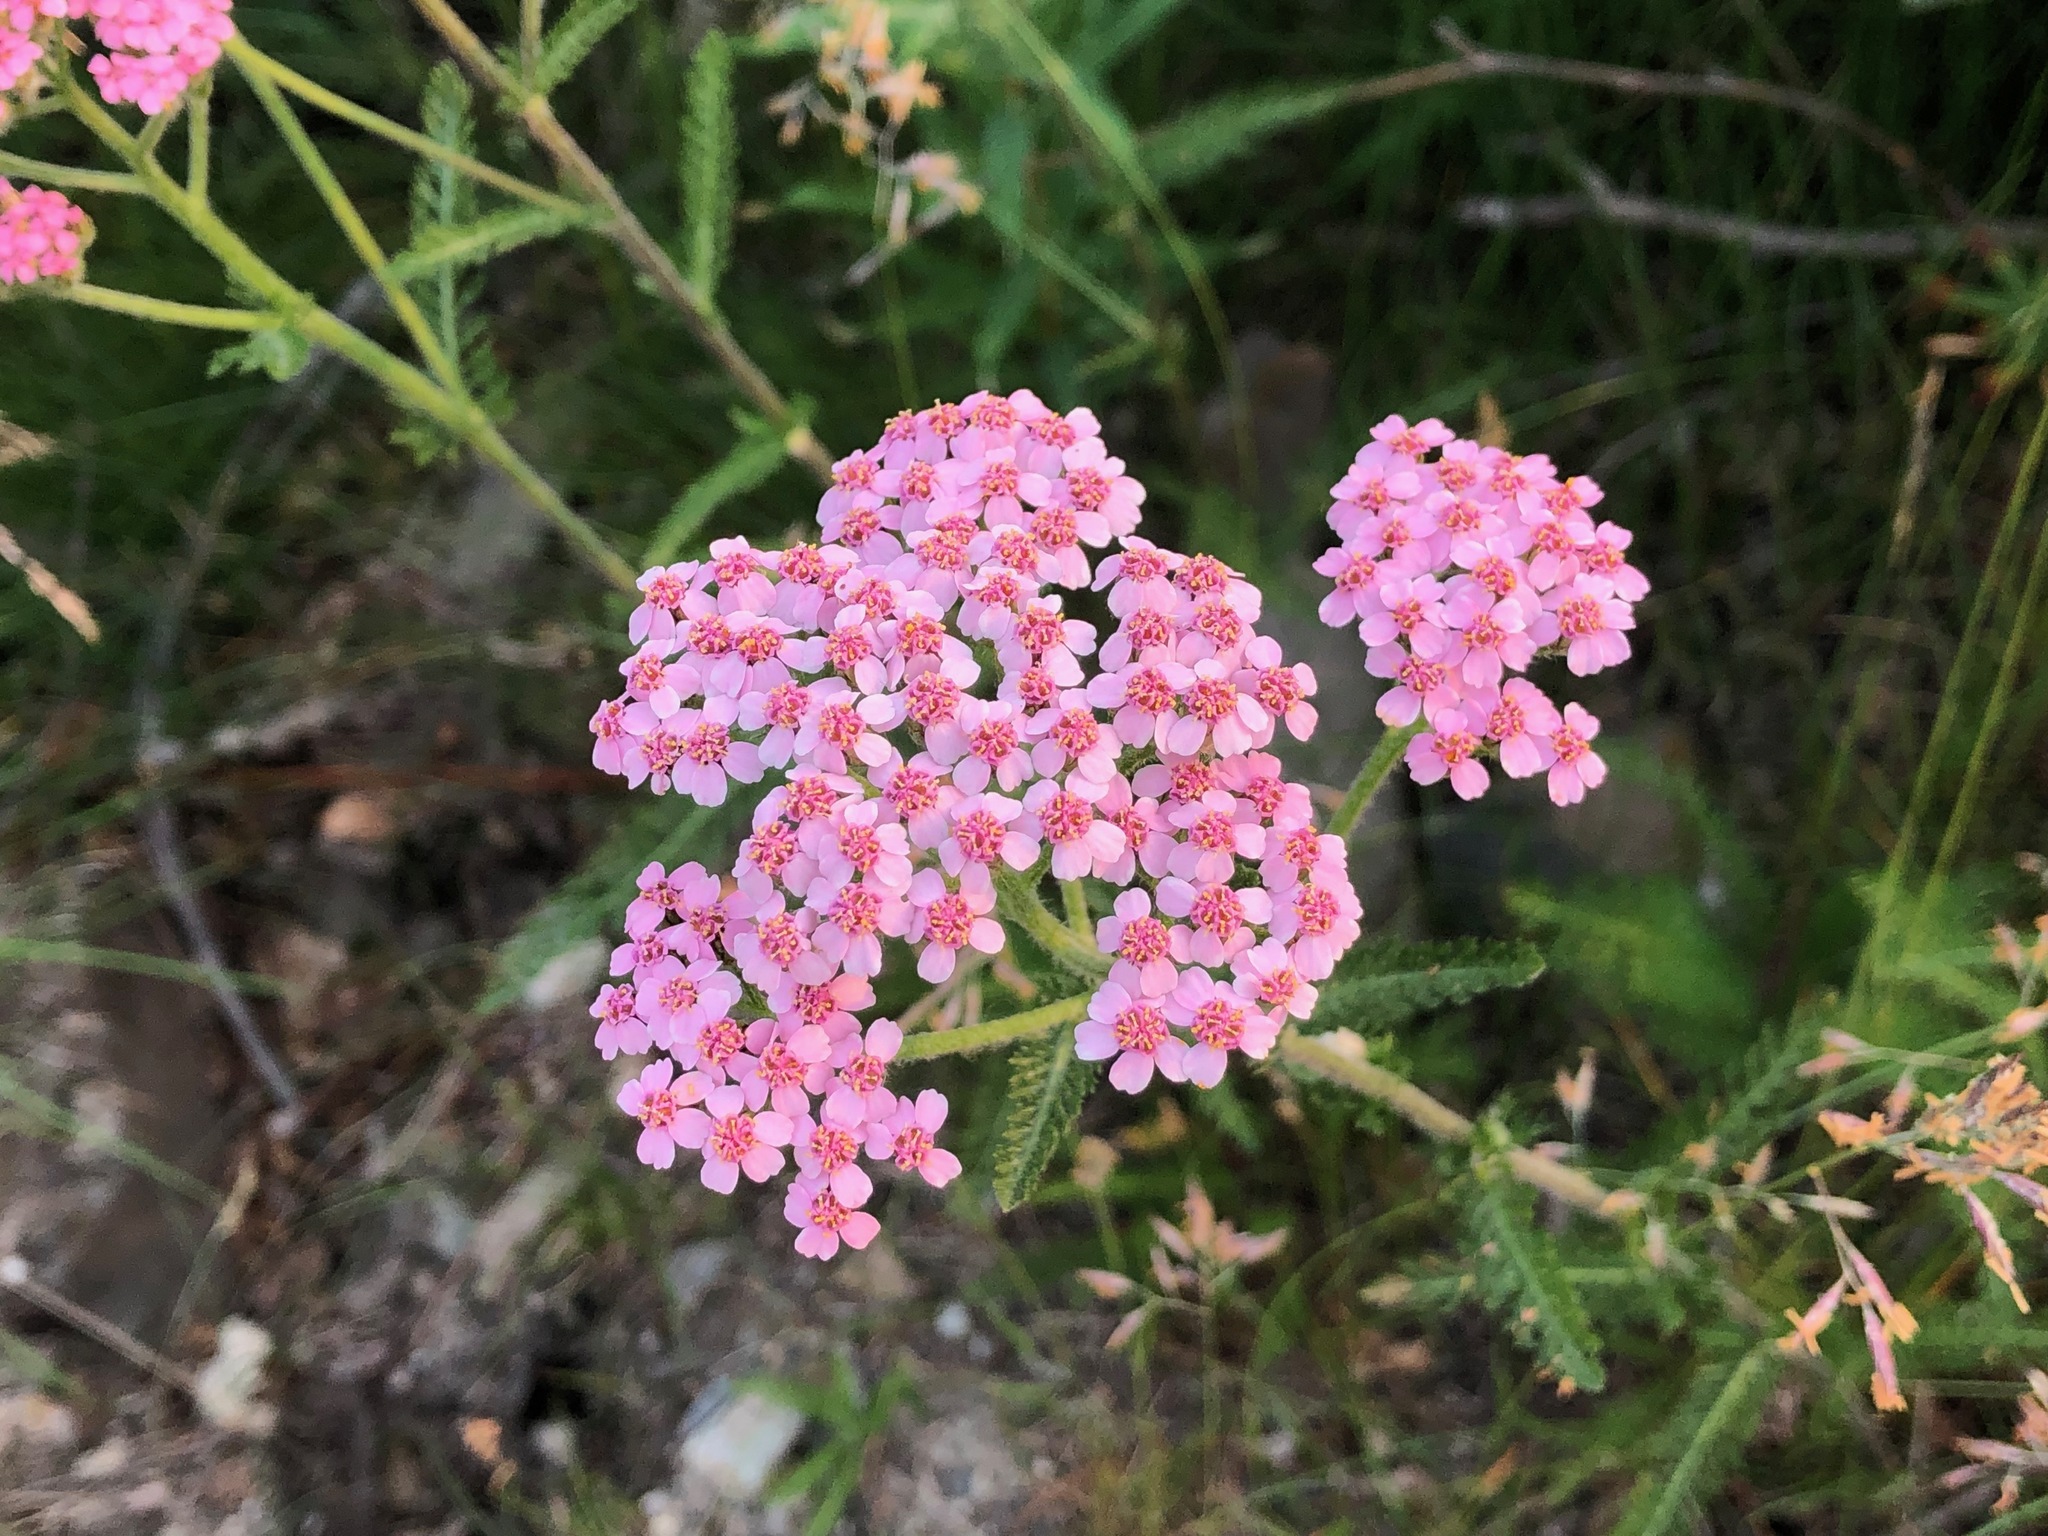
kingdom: Plantae
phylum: Tracheophyta
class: Magnoliopsida
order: Asterales
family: Asteraceae
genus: Achillea
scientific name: Achillea millefolium
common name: Yarrow
